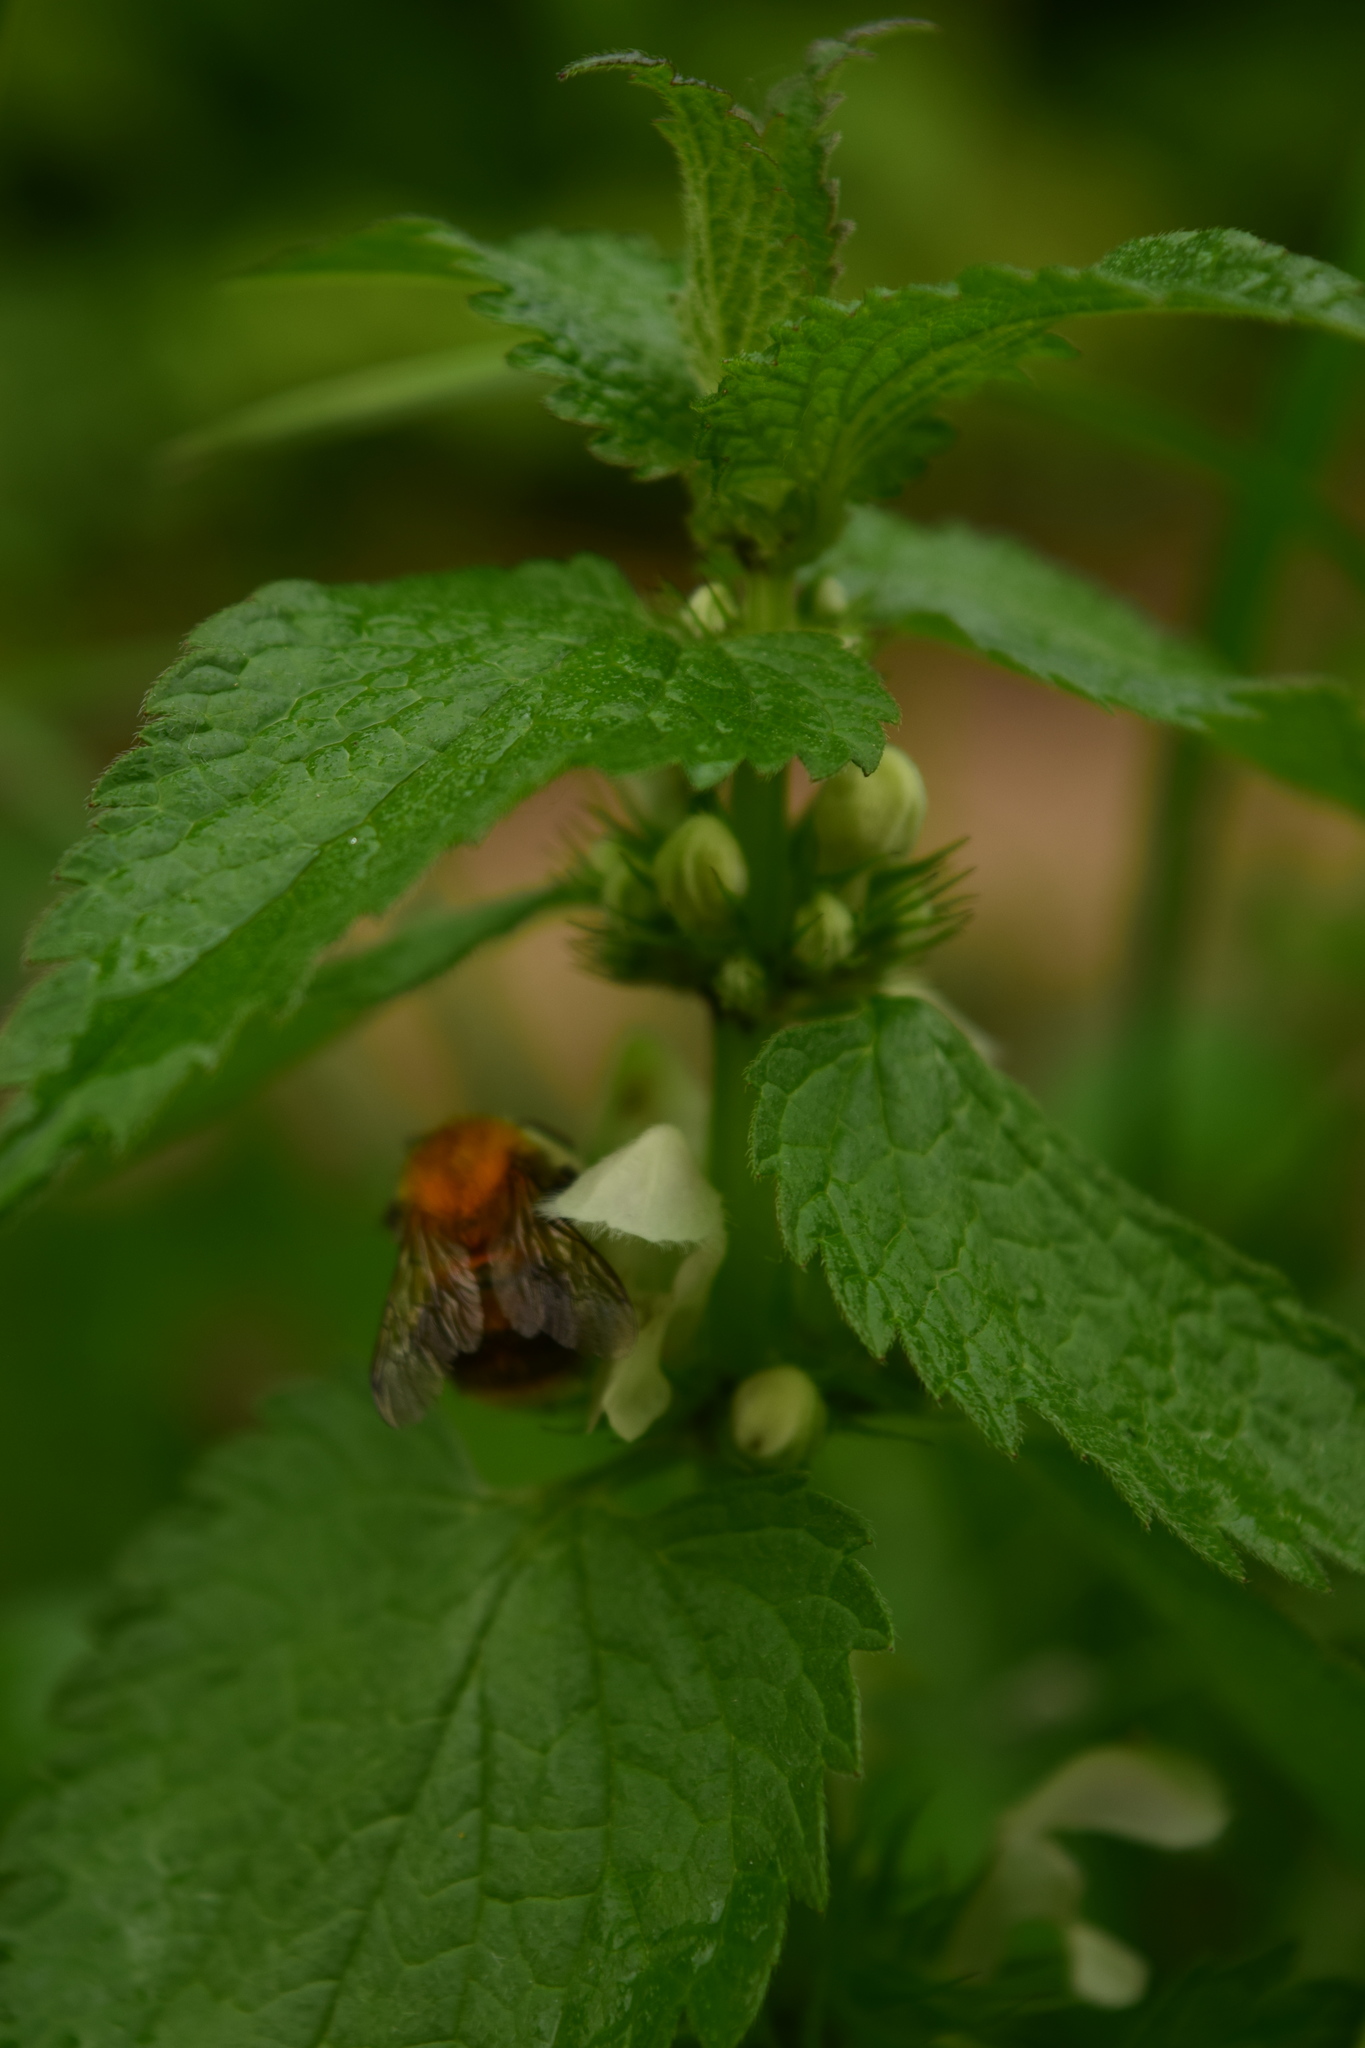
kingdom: Plantae
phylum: Tracheophyta
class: Magnoliopsida
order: Lamiales
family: Lamiaceae
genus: Lamium
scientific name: Lamium album
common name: White dead-nettle
